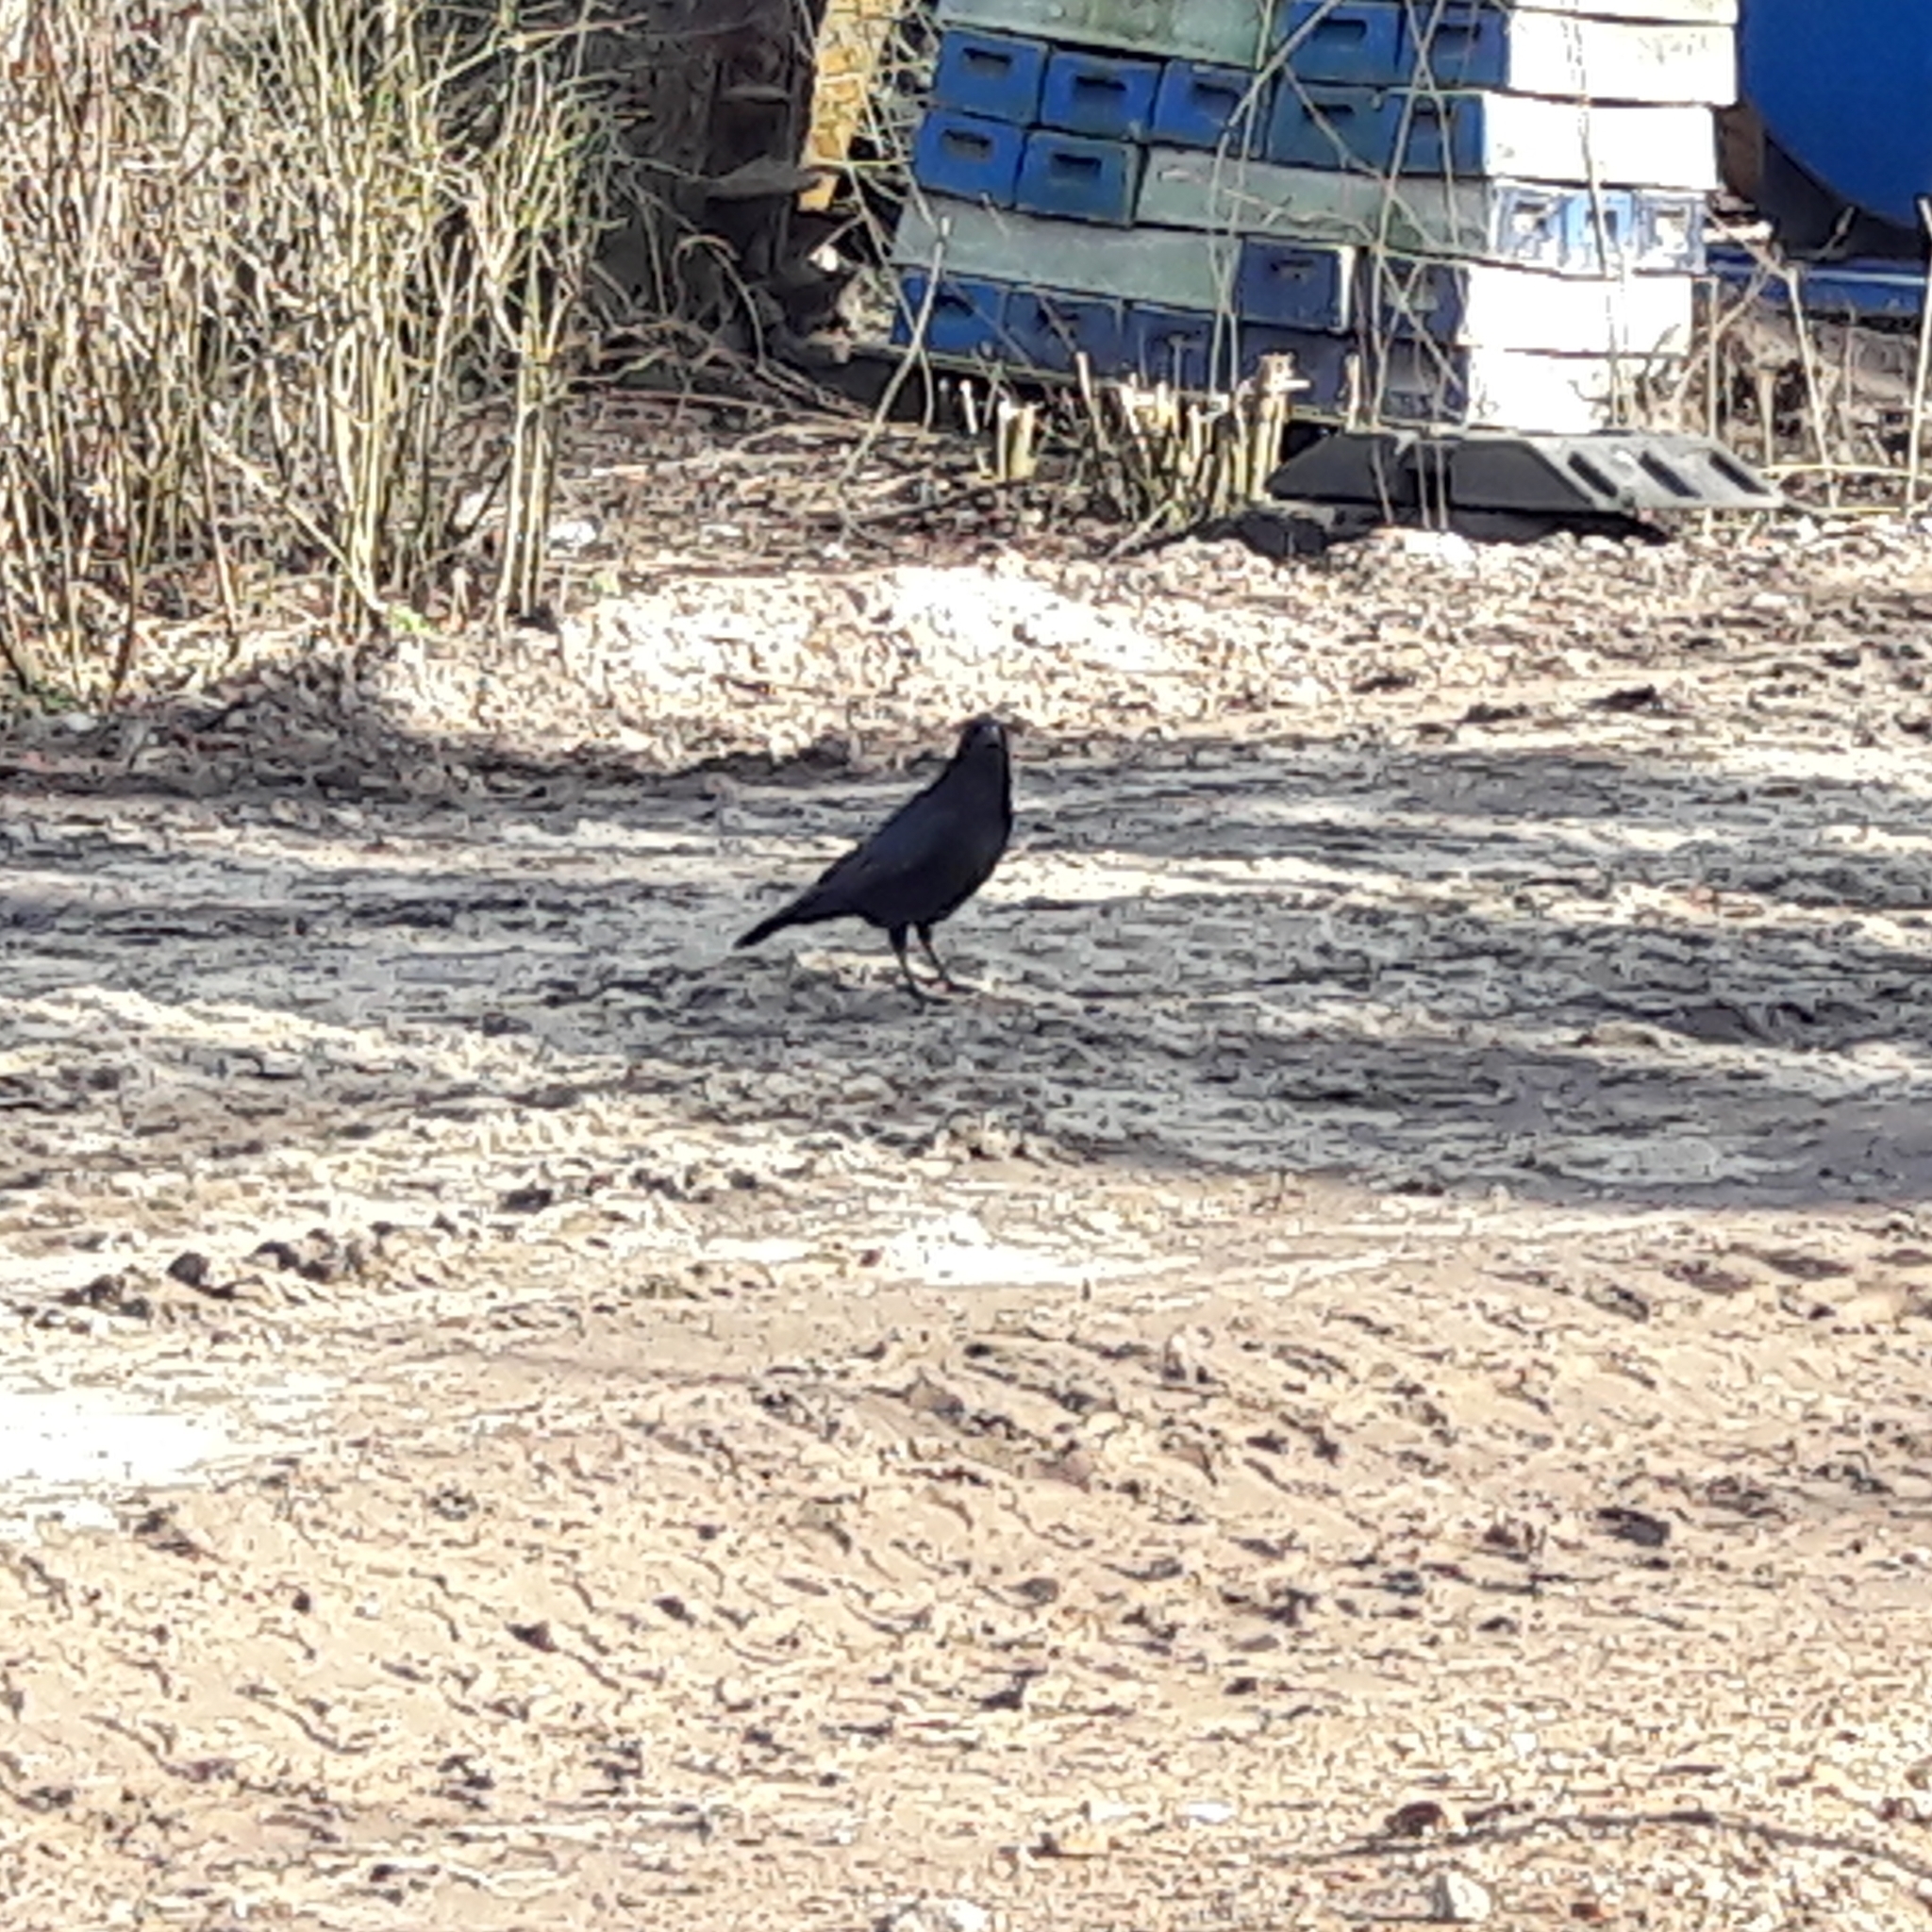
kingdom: Animalia
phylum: Chordata
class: Aves
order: Passeriformes
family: Corvidae
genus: Corvus
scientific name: Corvus corone
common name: Carrion crow
